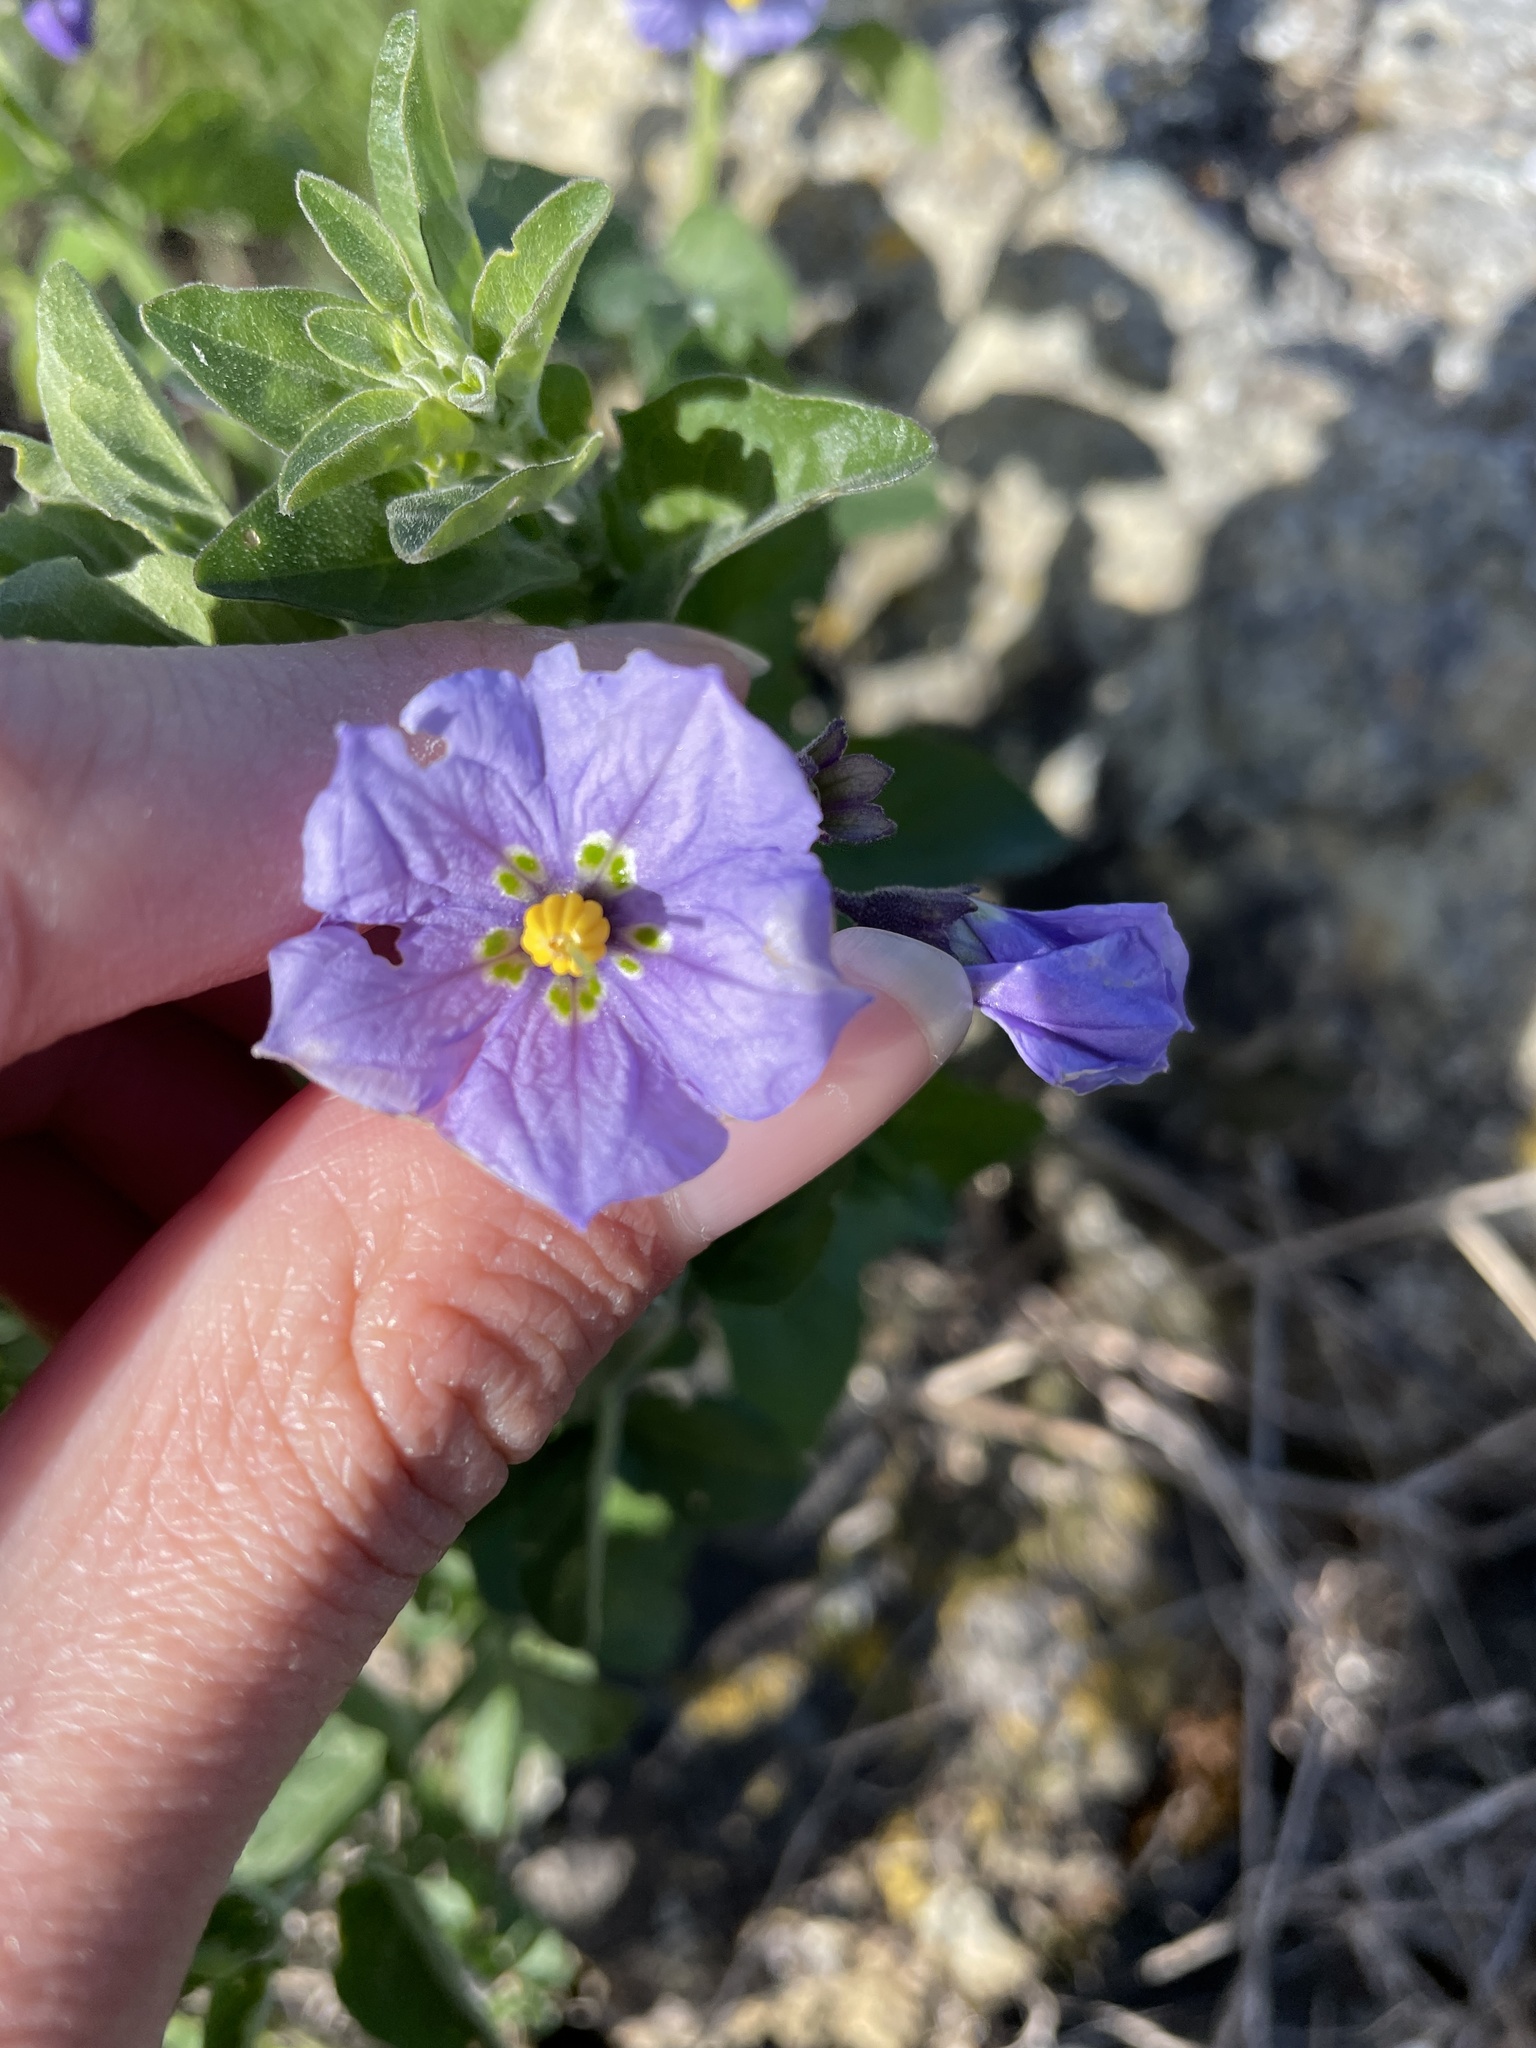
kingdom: Plantae
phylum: Tracheophyta
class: Magnoliopsida
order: Solanales
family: Solanaceae
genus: Solanum
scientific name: Solanum umbelliferum
